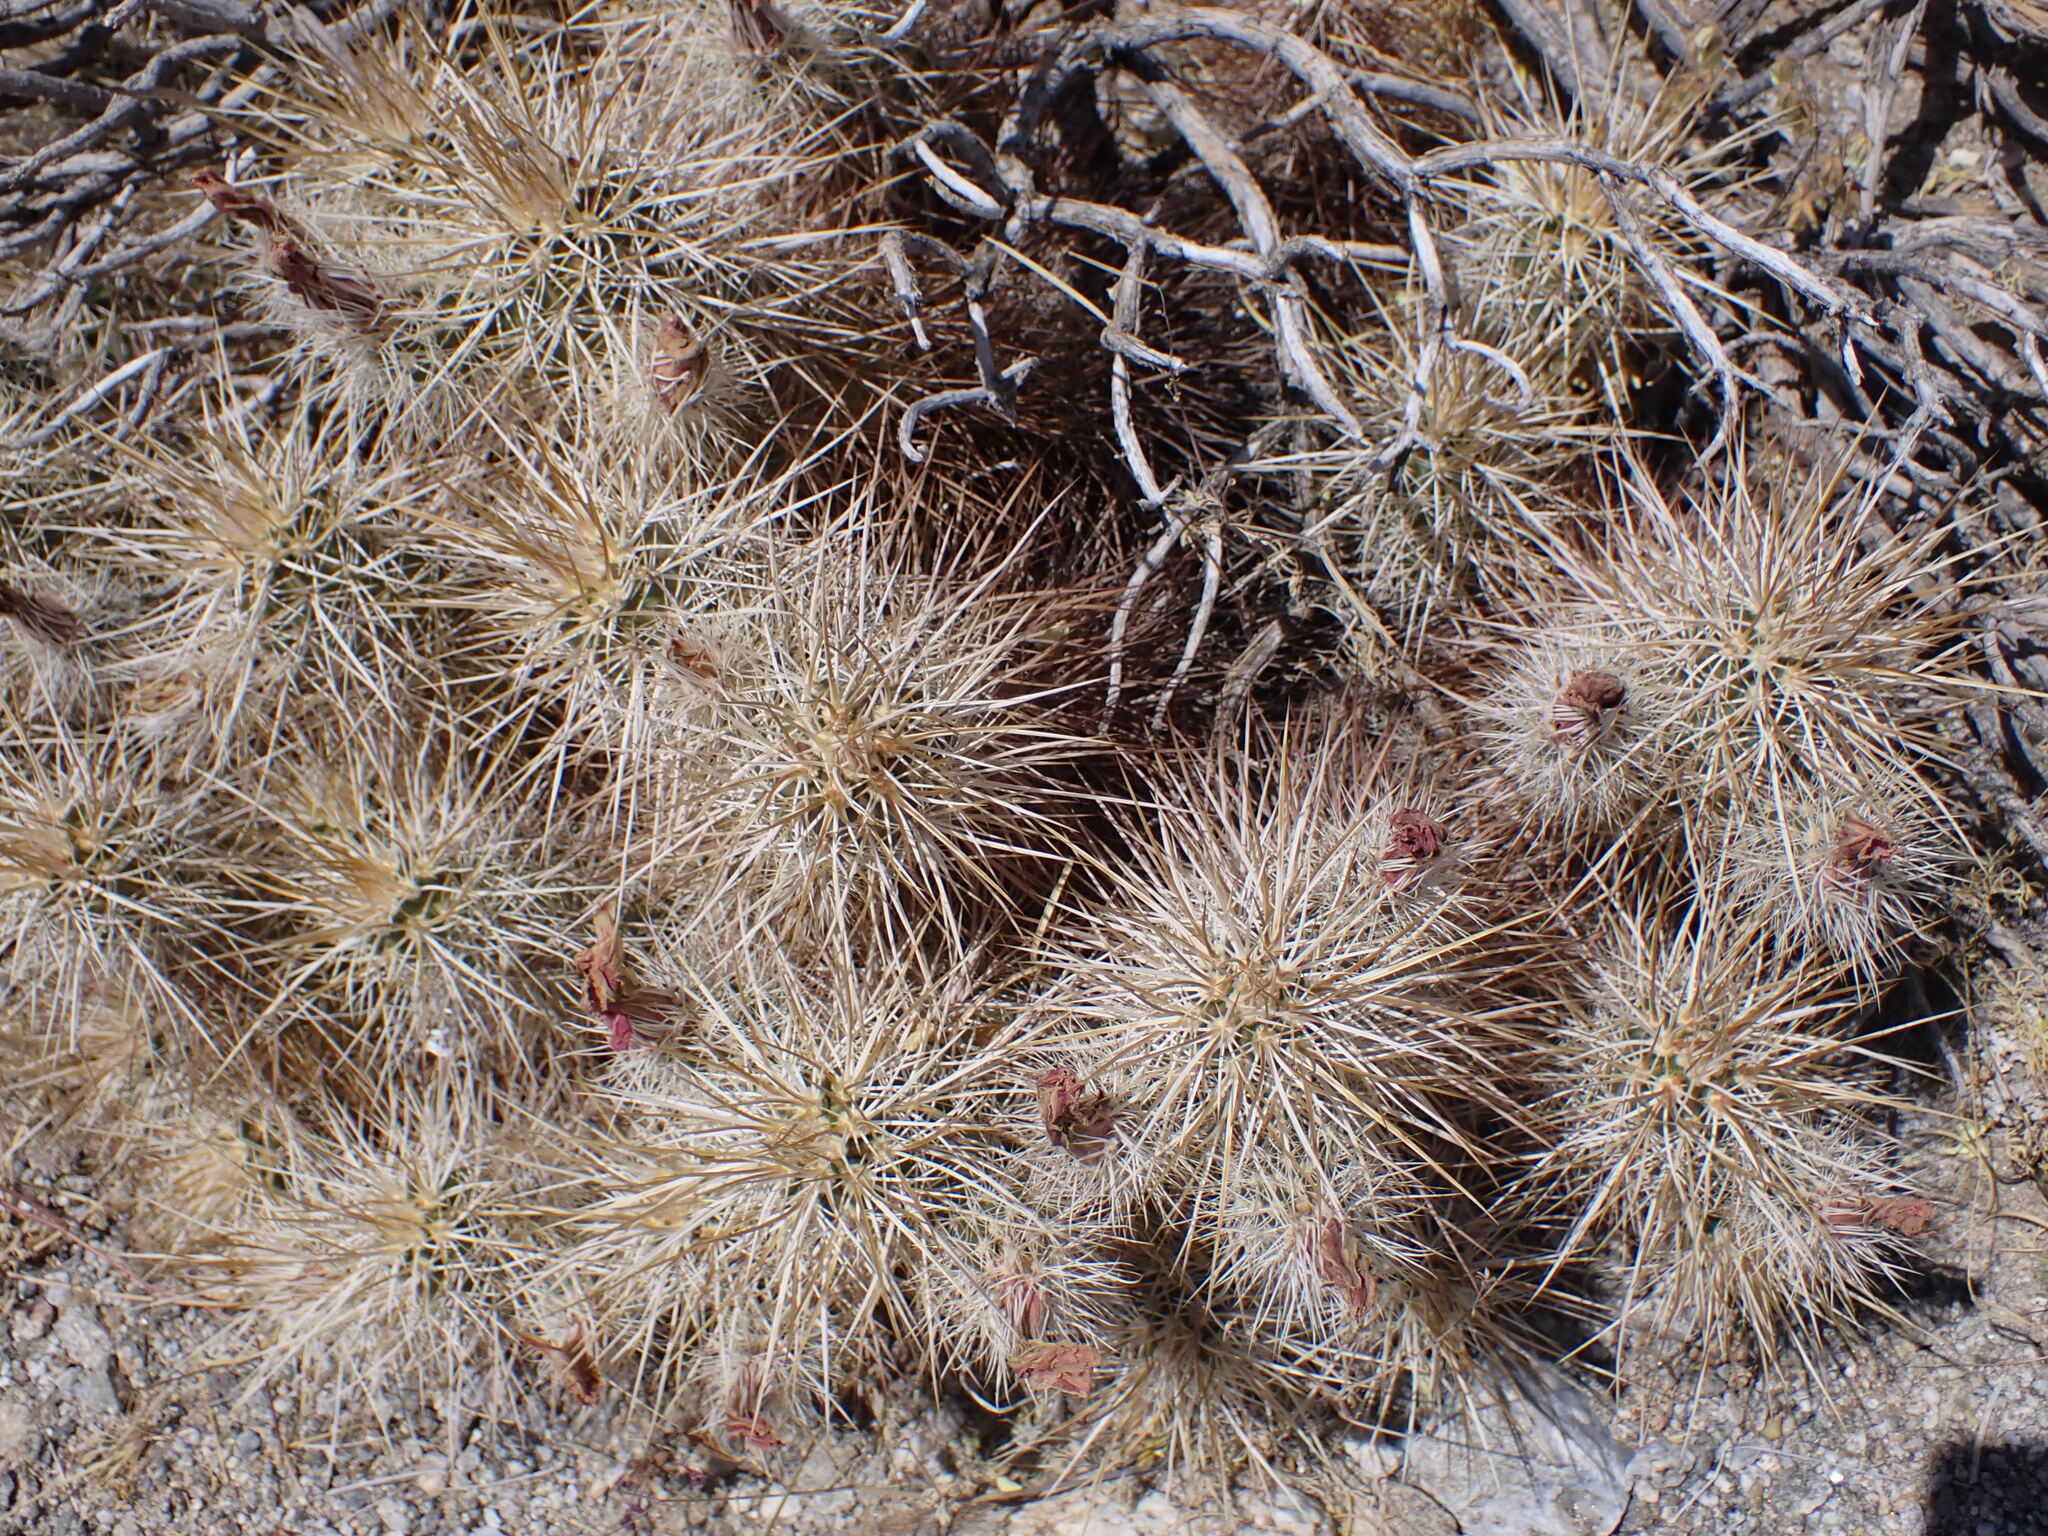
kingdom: Plantae
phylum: Tracheophyta
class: Magnoliopsida
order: Caryophyllales
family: Cactaceae
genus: Echinocereus
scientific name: Echinocereus engelmannii
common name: Engelmann's hedgehog cactus
